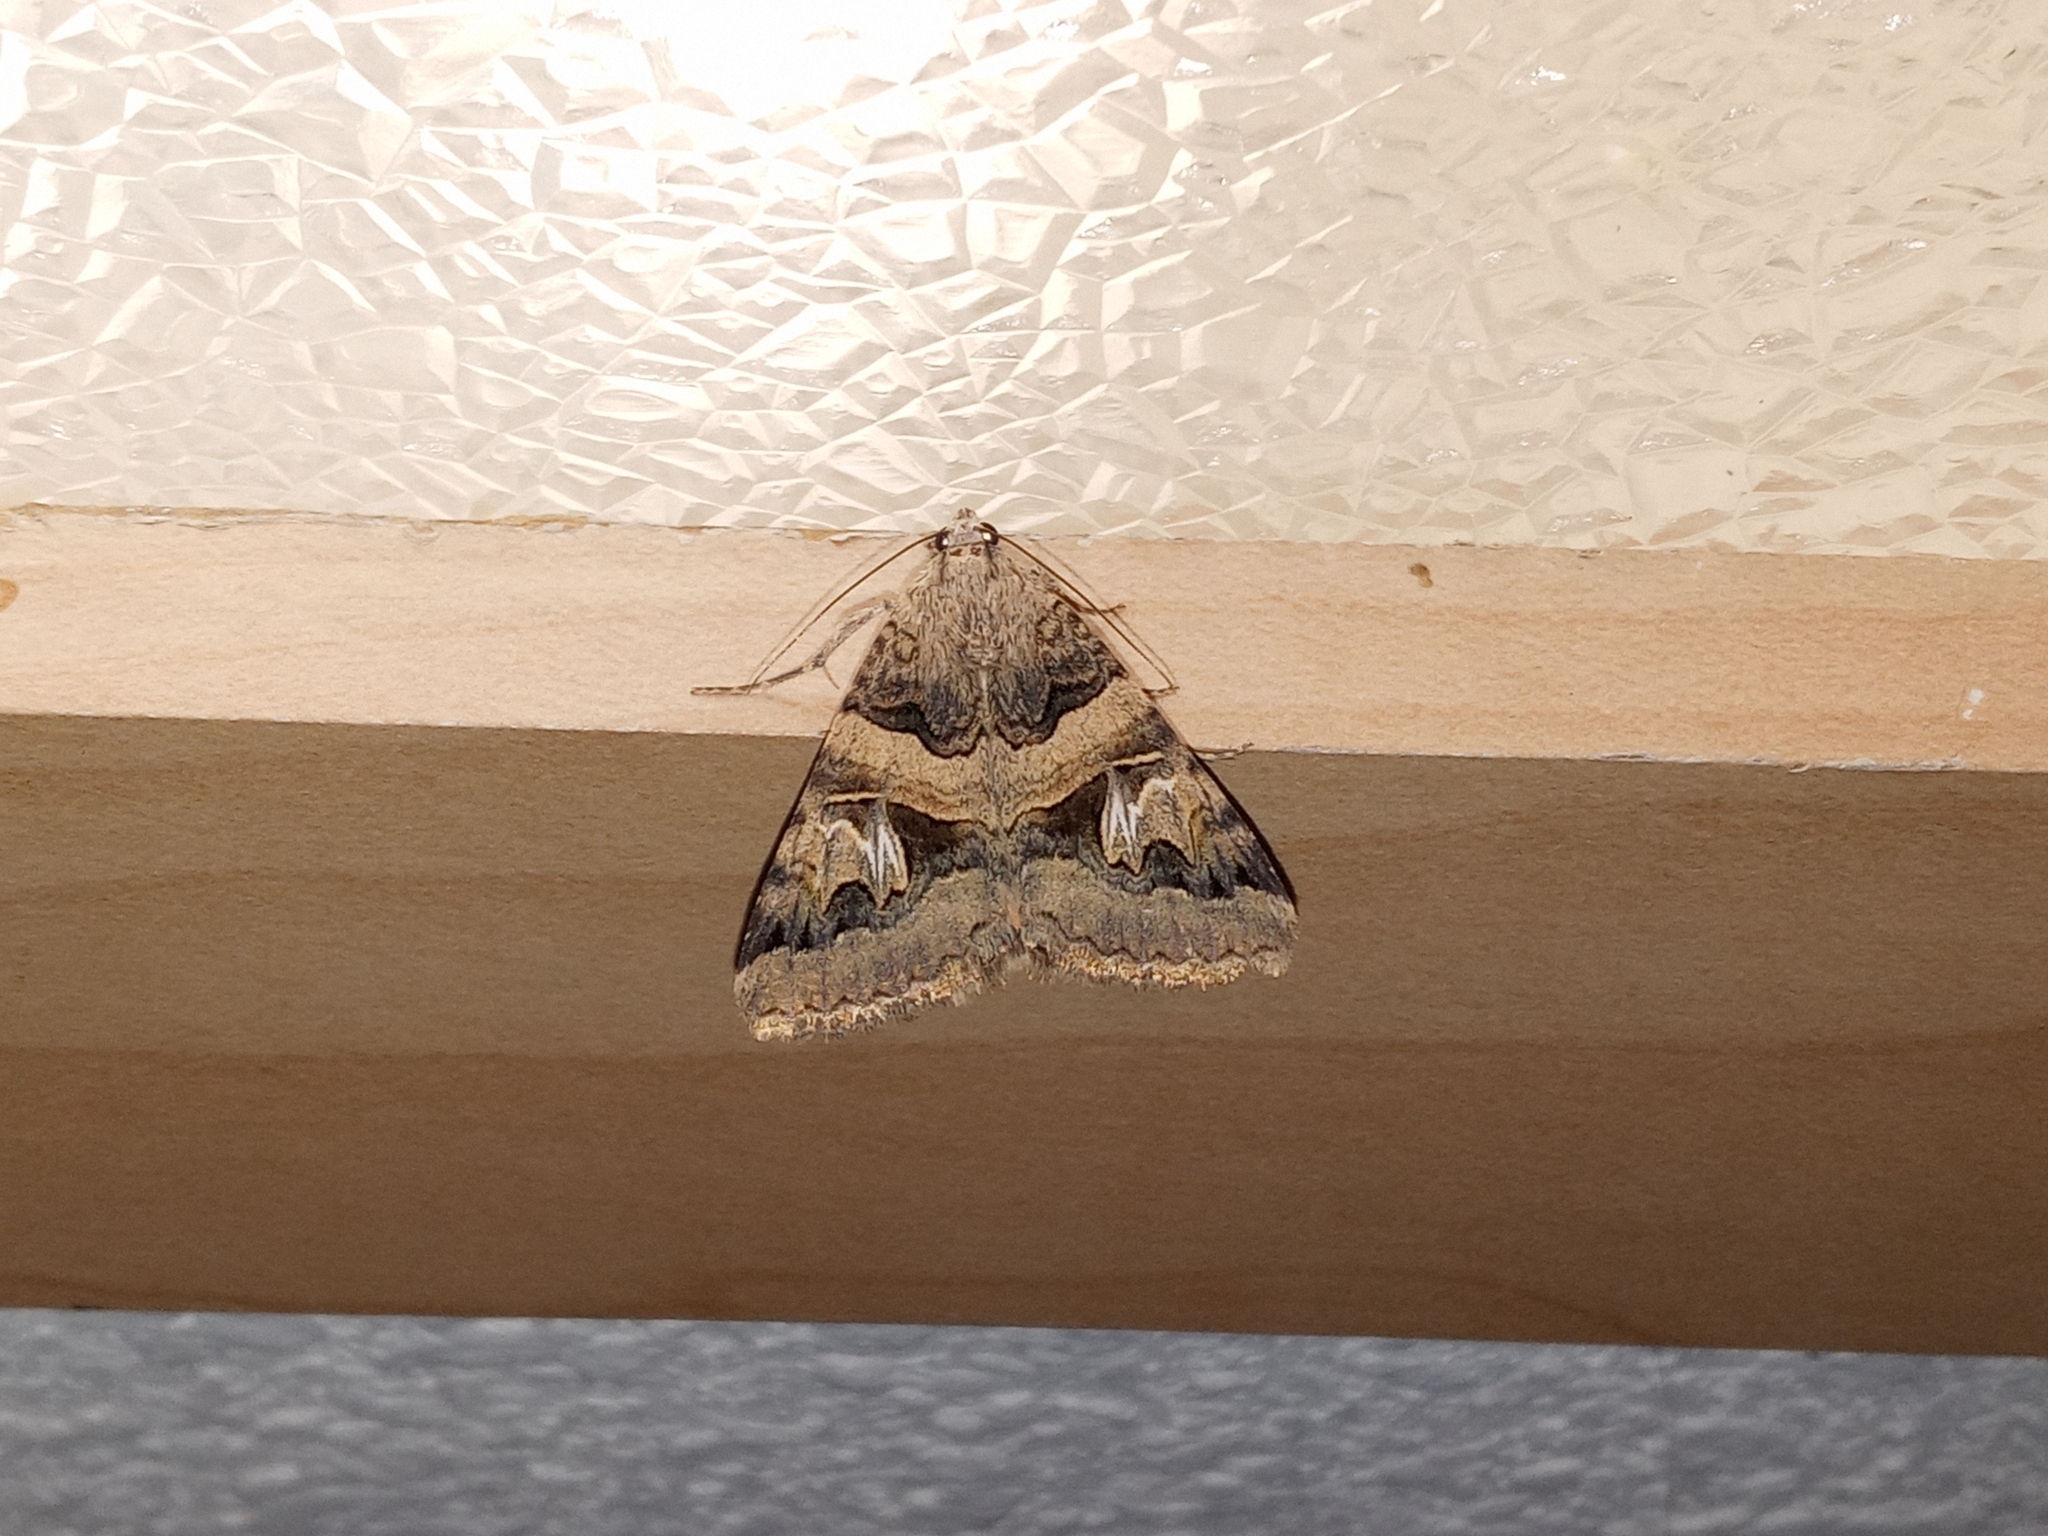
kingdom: Animalia
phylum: Arthropoda
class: Insecta
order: Lepidoptera
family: Erebidae
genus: Drasteria
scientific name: Drasteria divergens
